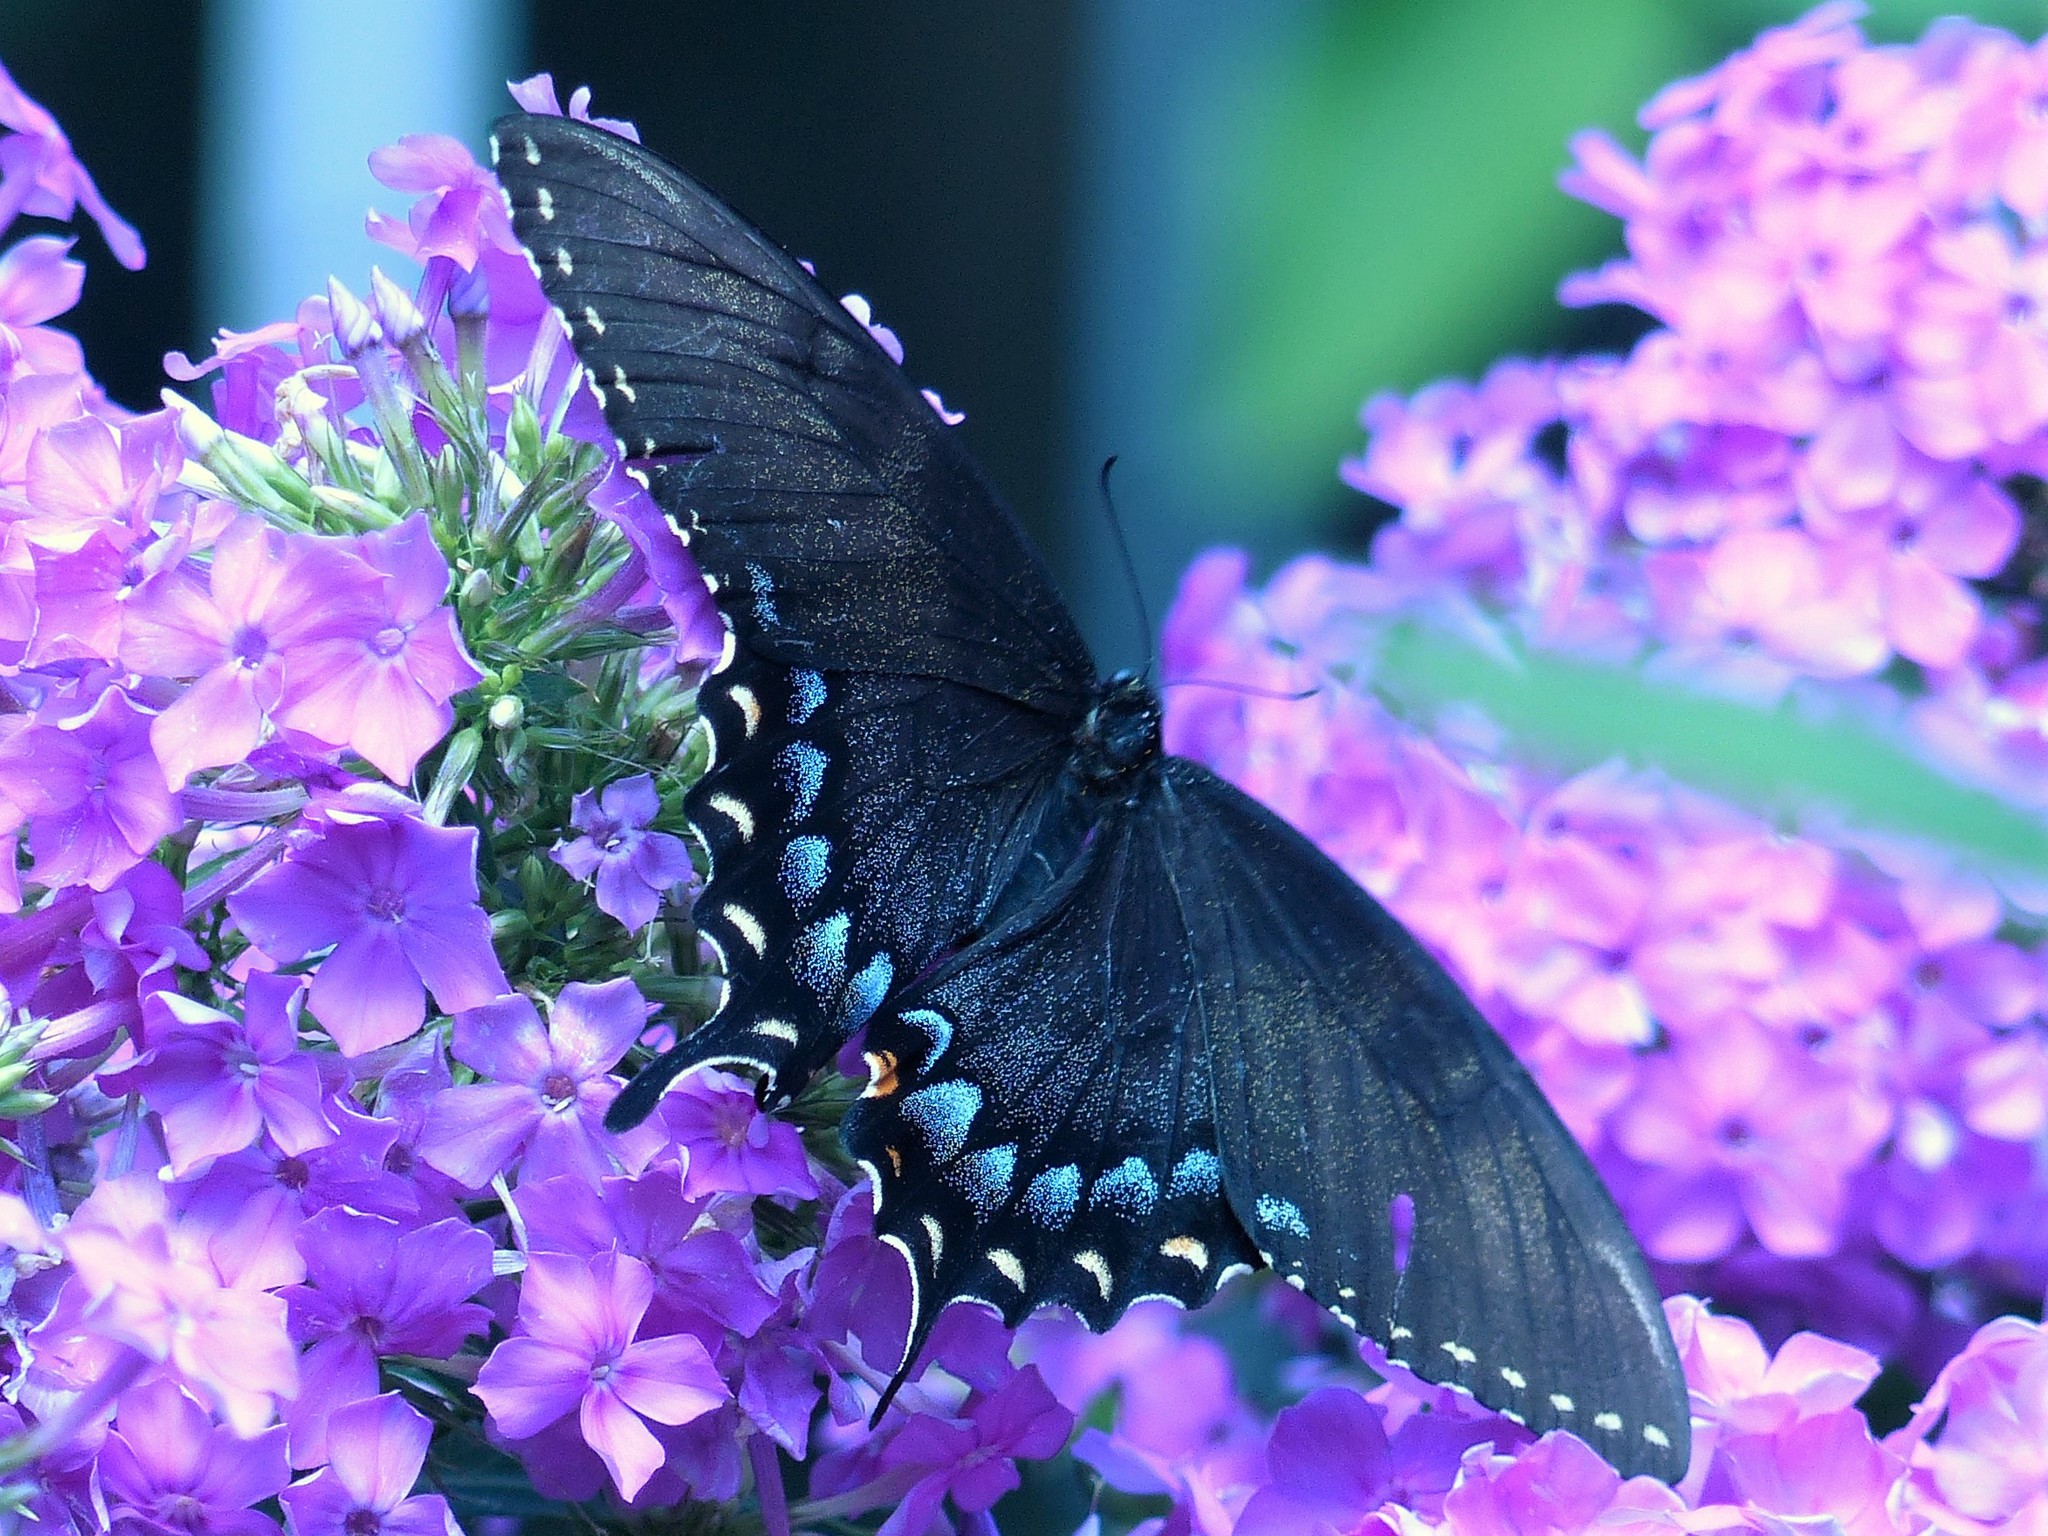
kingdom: Animalia
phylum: Arthropoda
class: Insecta
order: Lepidoptera
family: Papilionidae
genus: Papilio
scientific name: Papilio glaucus
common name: Tiger swallowtail
